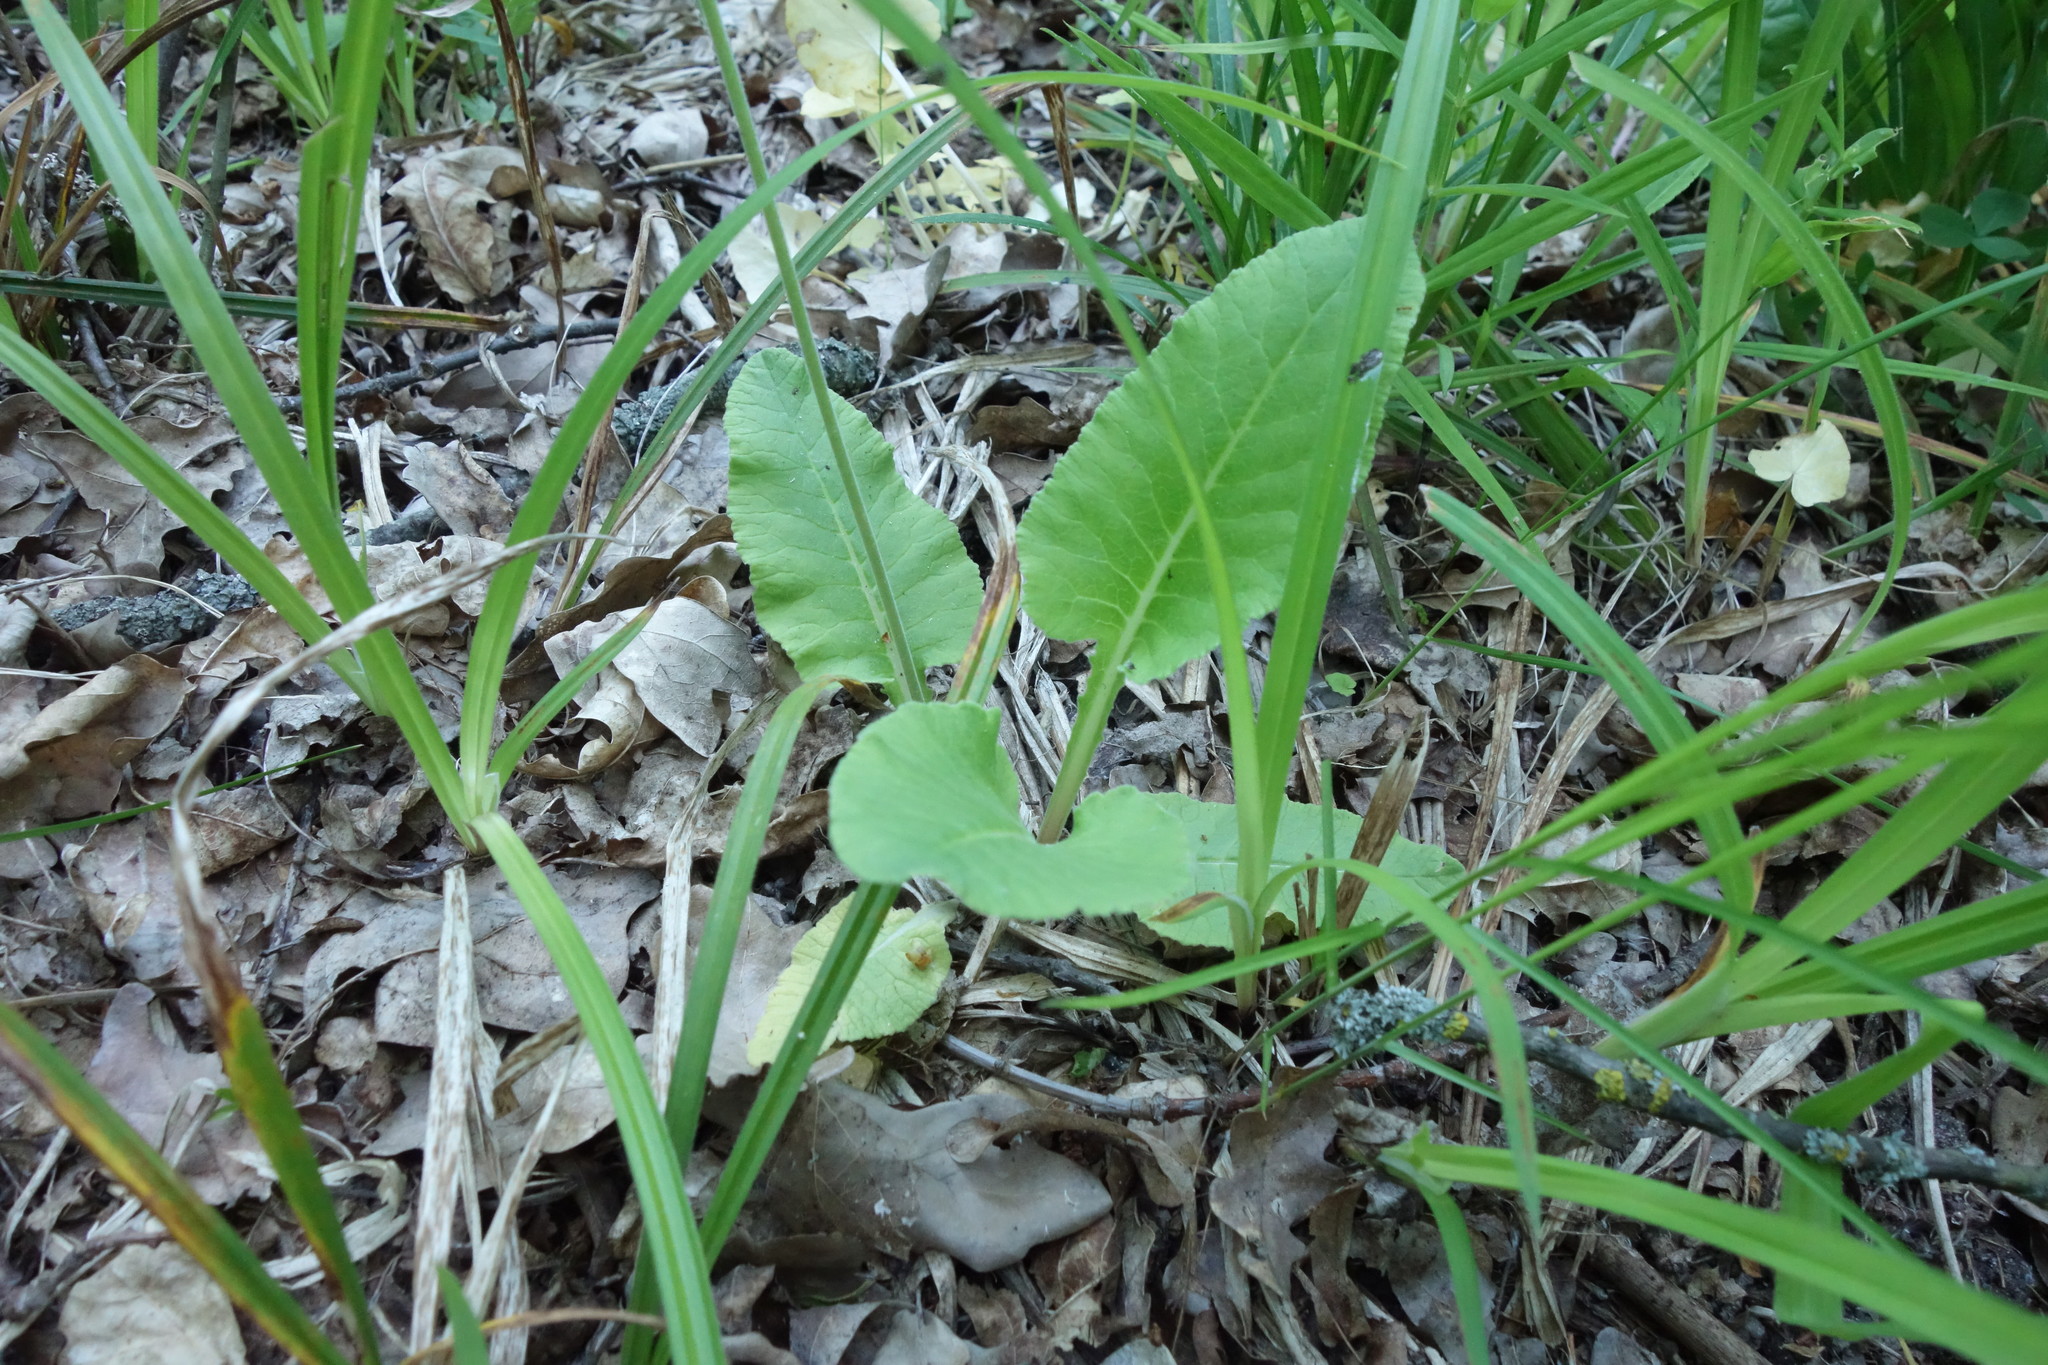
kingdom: Plantae
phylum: Tracheophyta
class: Magnoliopsida
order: Ericales
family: Primulaceae
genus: Primula
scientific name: Primula veris
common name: Cowslip
